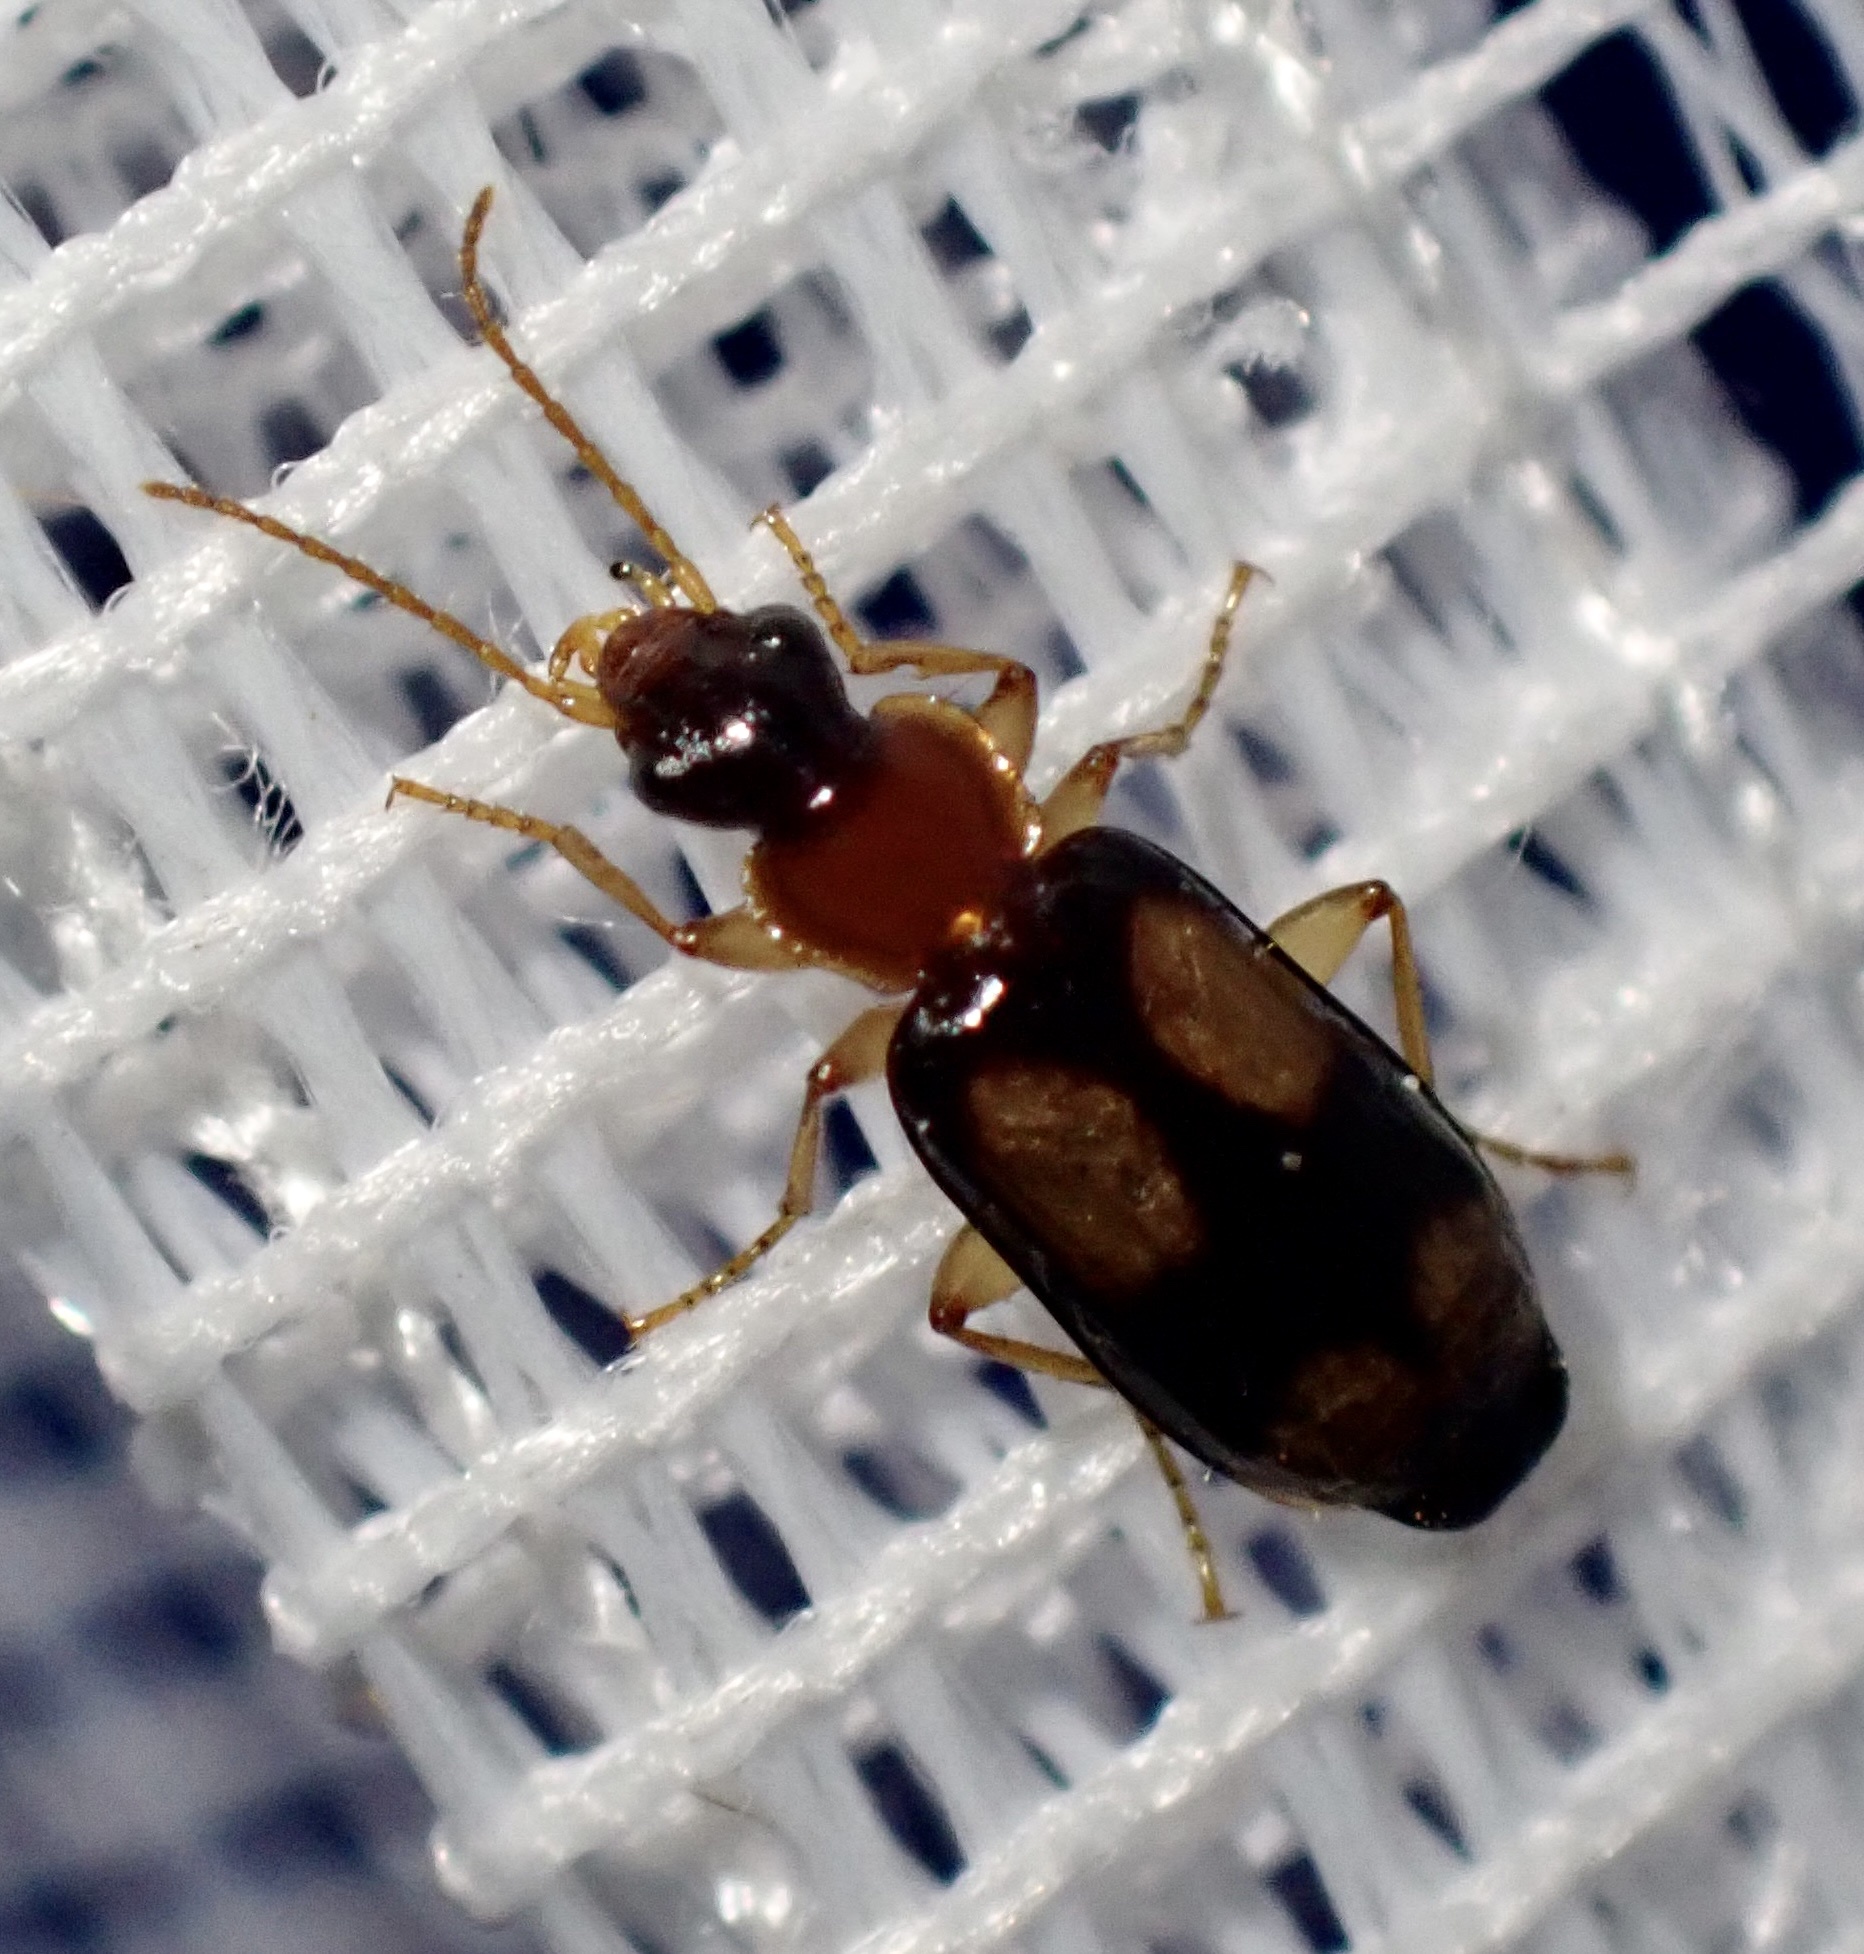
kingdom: Animalia
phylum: Arthropoda
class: Insecta
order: Coleoptera
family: Carabidae
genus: Calodromius
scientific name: Calodromius spilotus
